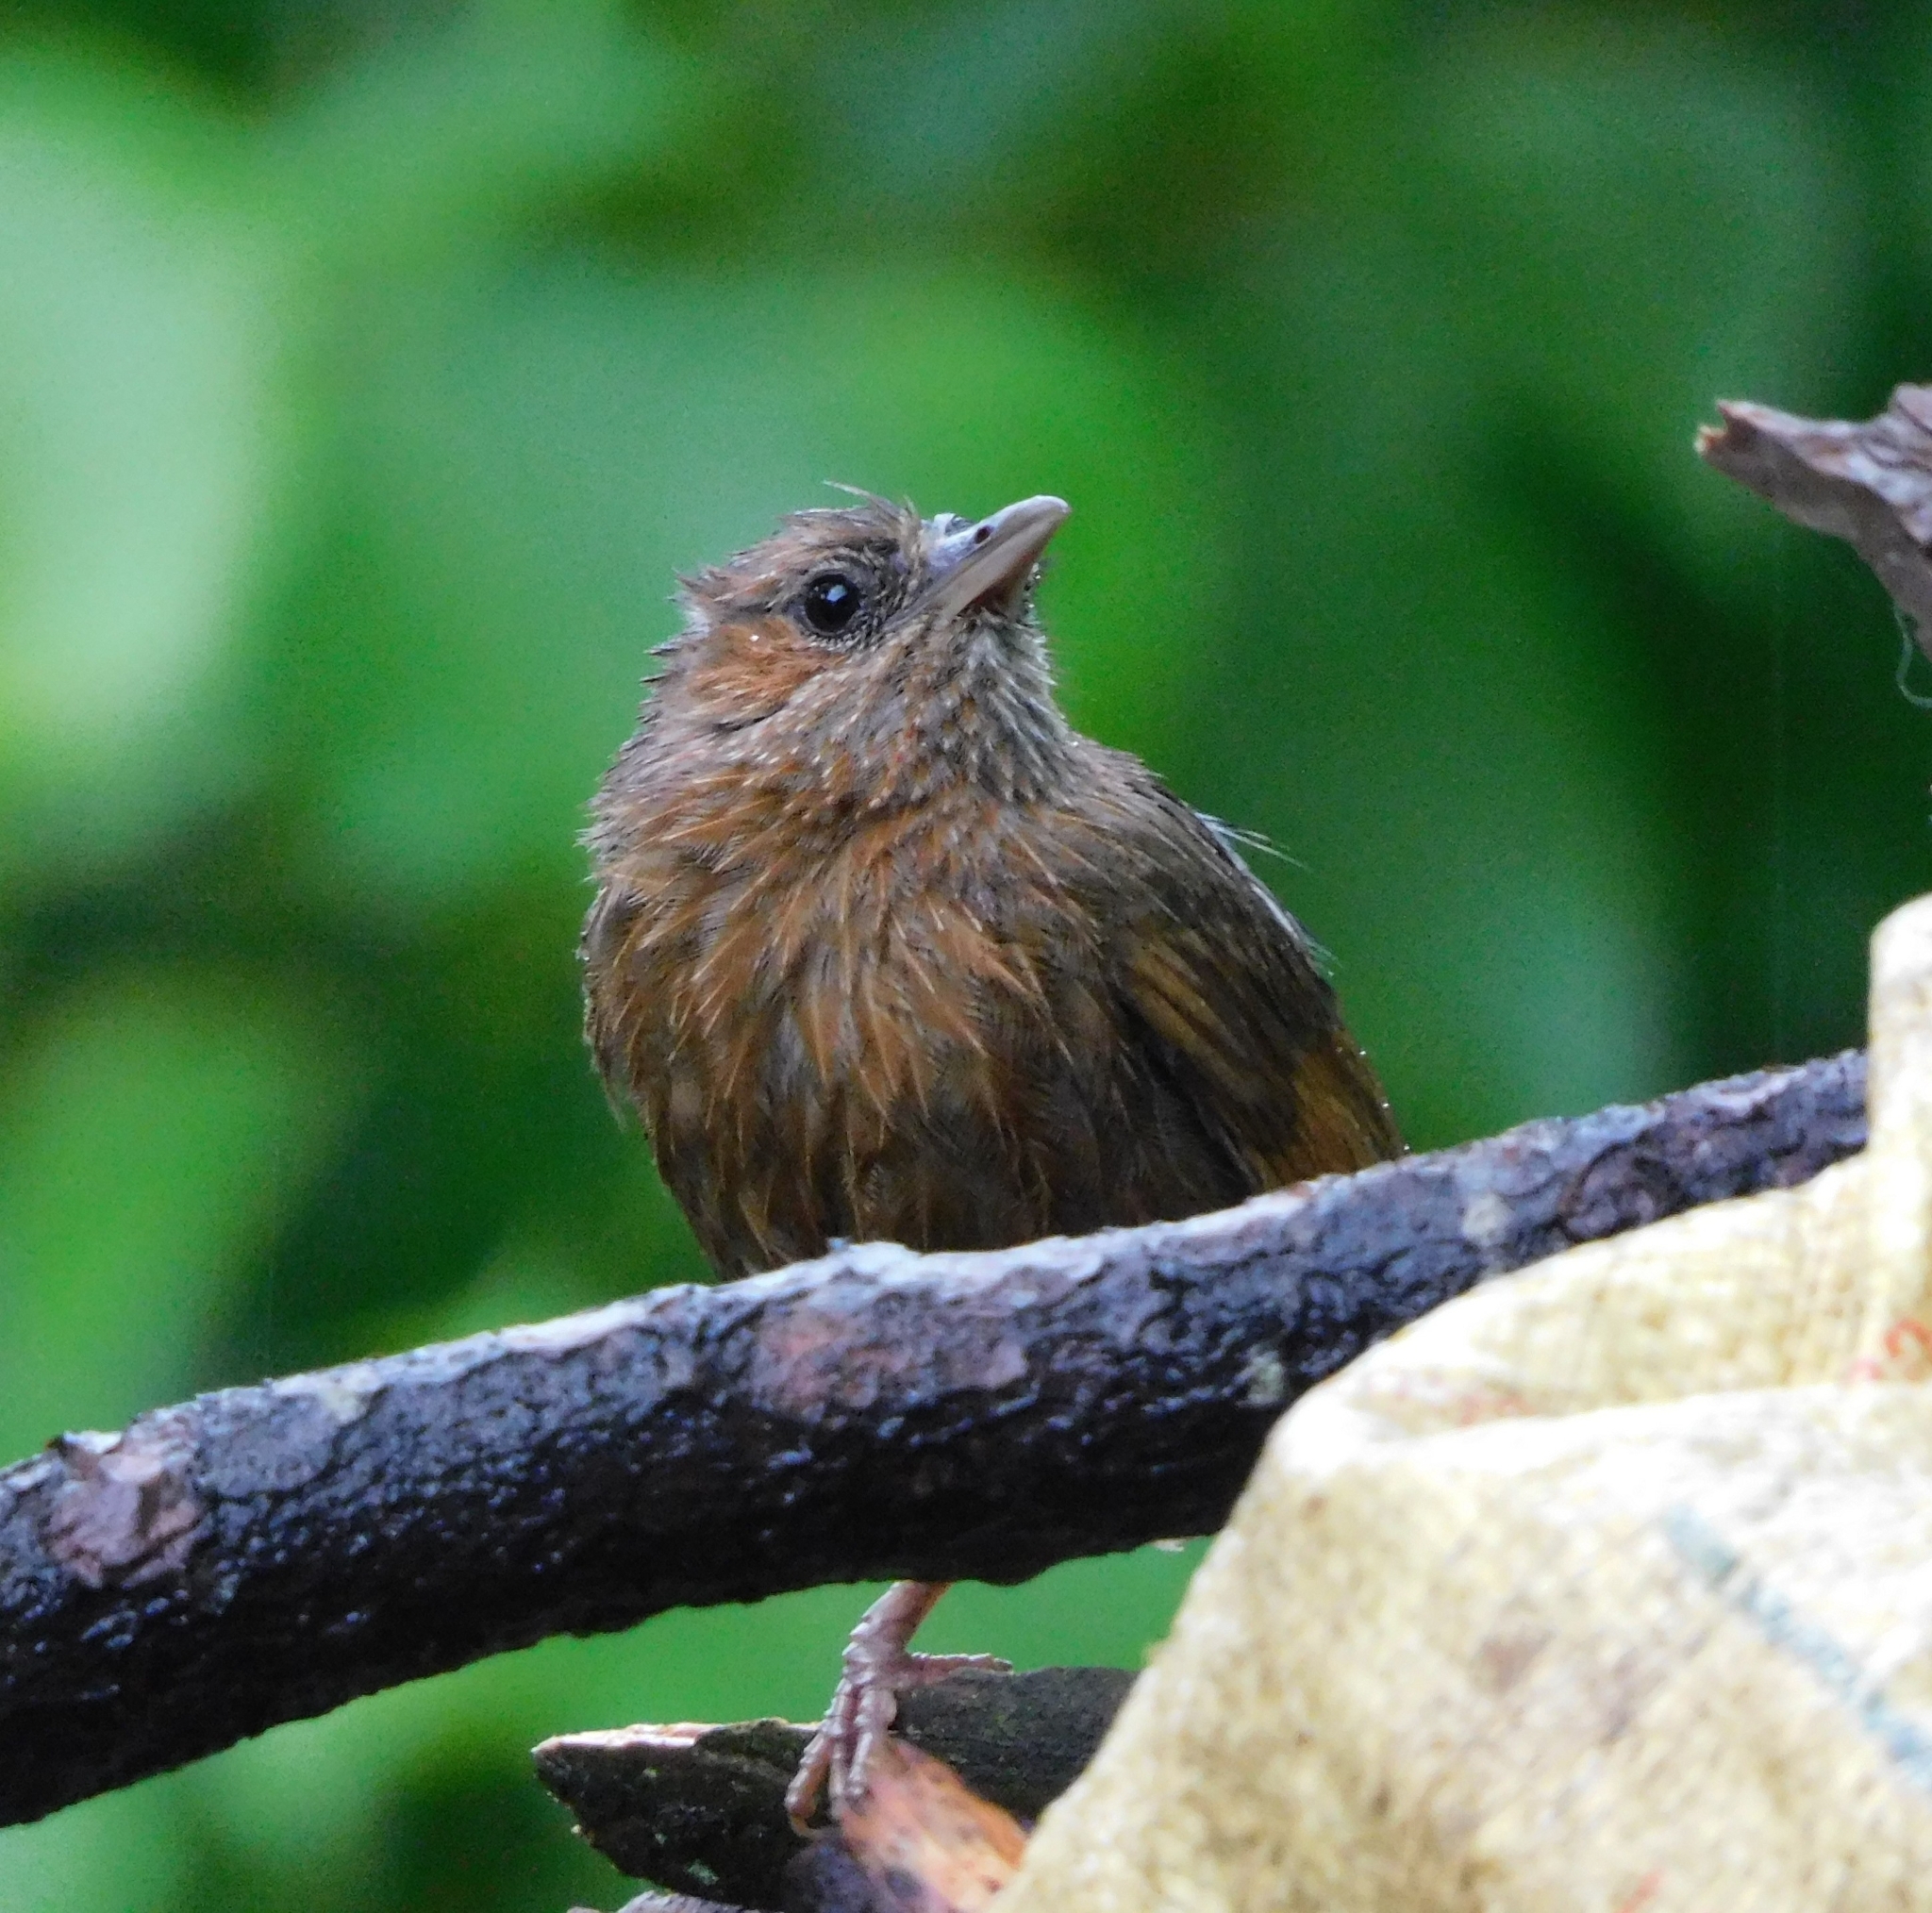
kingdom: Animalia
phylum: Chordata
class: Aves
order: Passeriformes
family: Leiothrichidae
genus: Trochalopteron
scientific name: Trochalopteron lineatum
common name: Streaked laughingthrush
